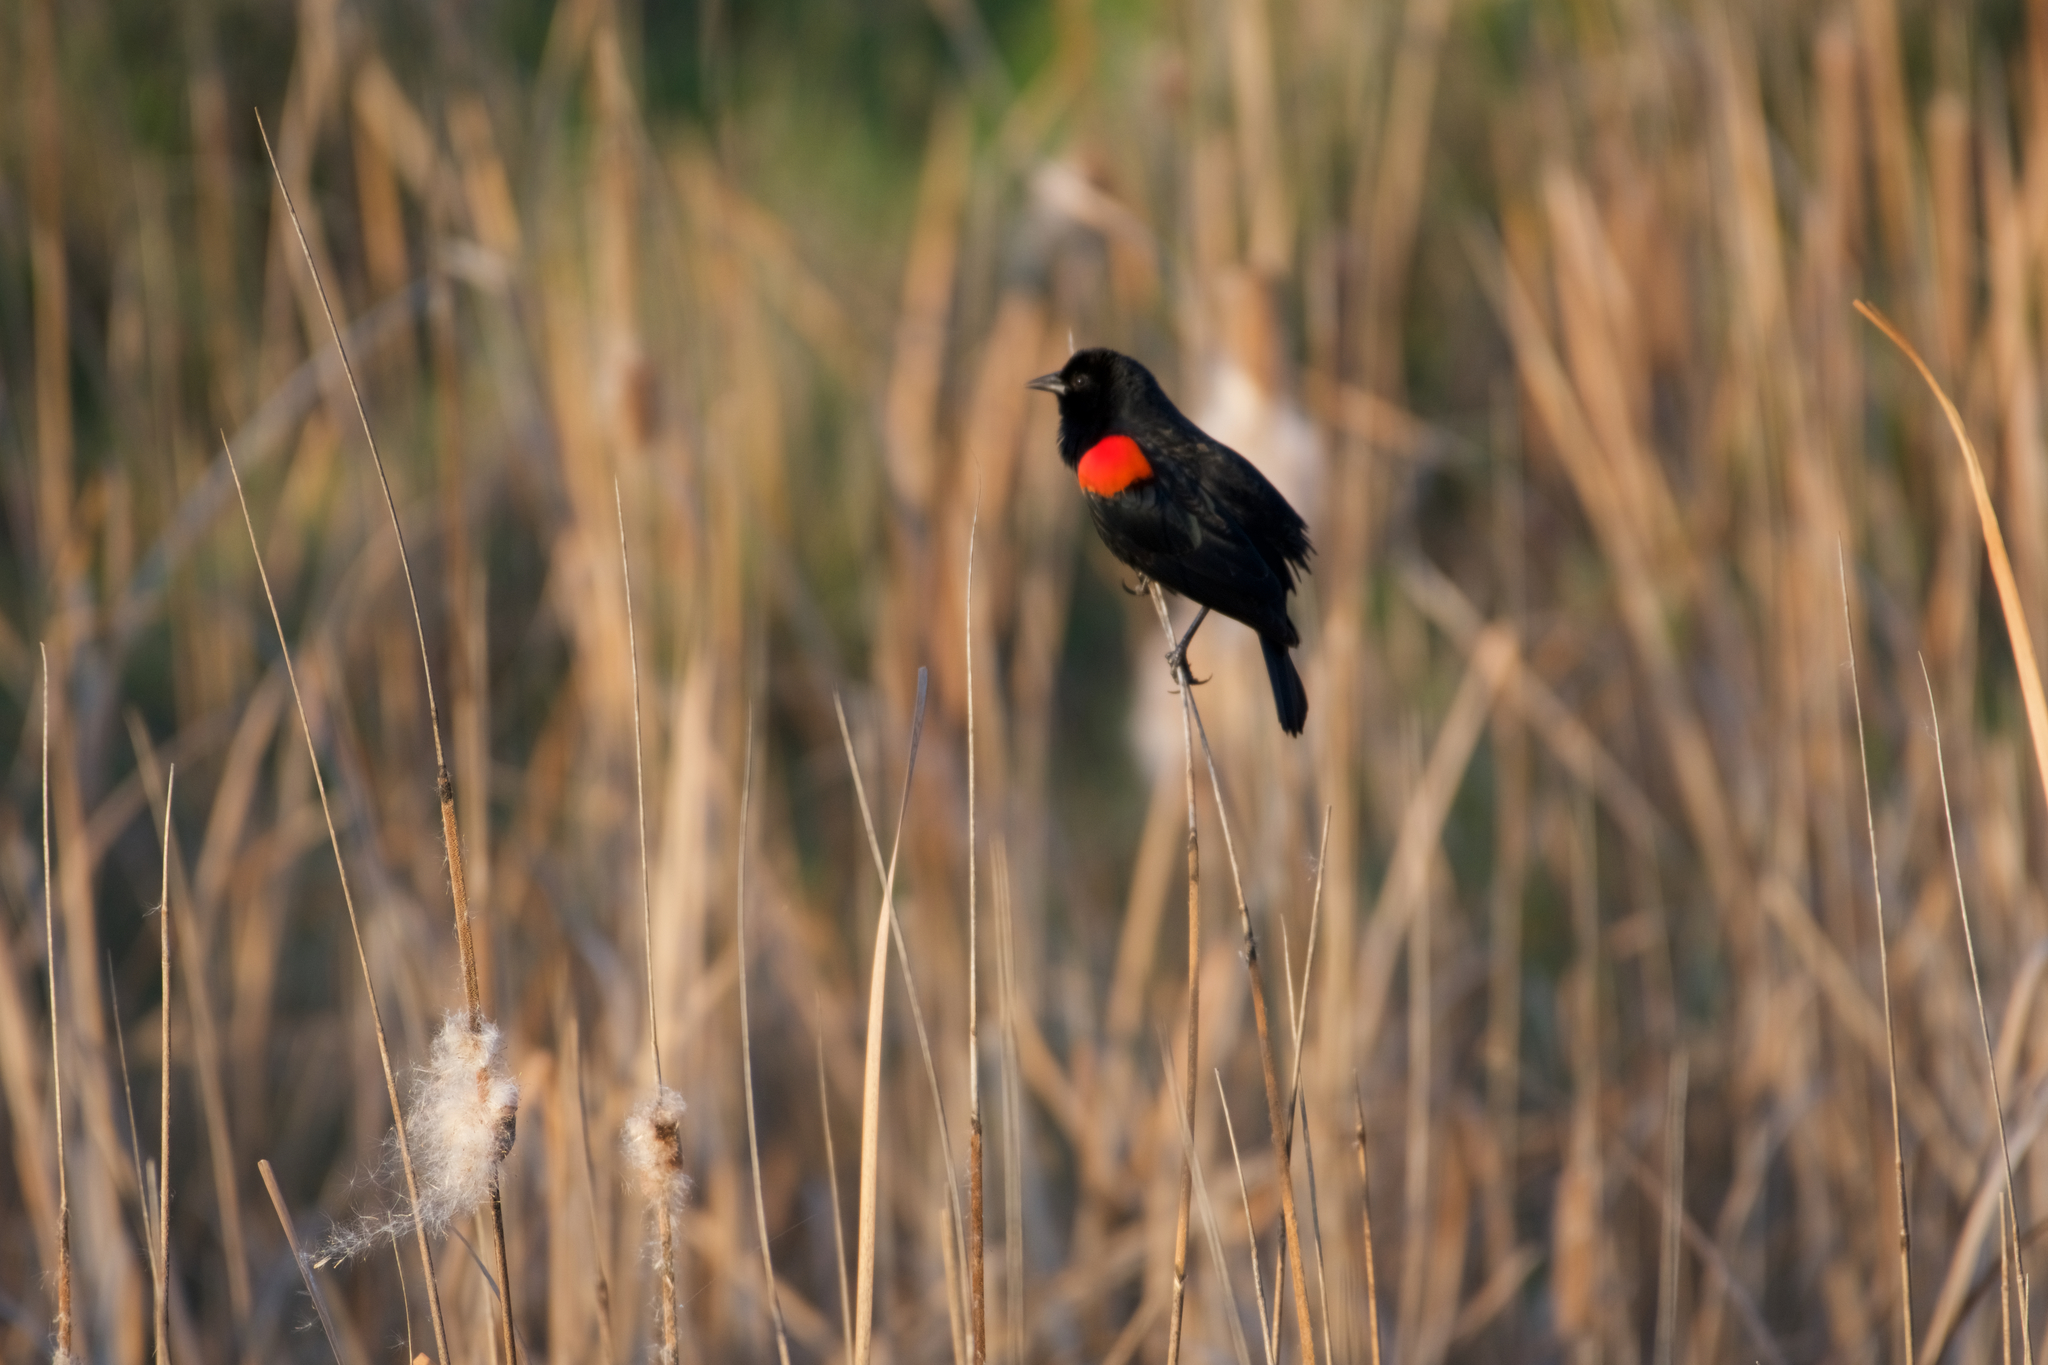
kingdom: Animalia
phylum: Chordata
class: Aves
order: Passeriformes
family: Icteridae
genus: Agelaius
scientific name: Agelaius phoeniceus
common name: Red-winged blackbird
